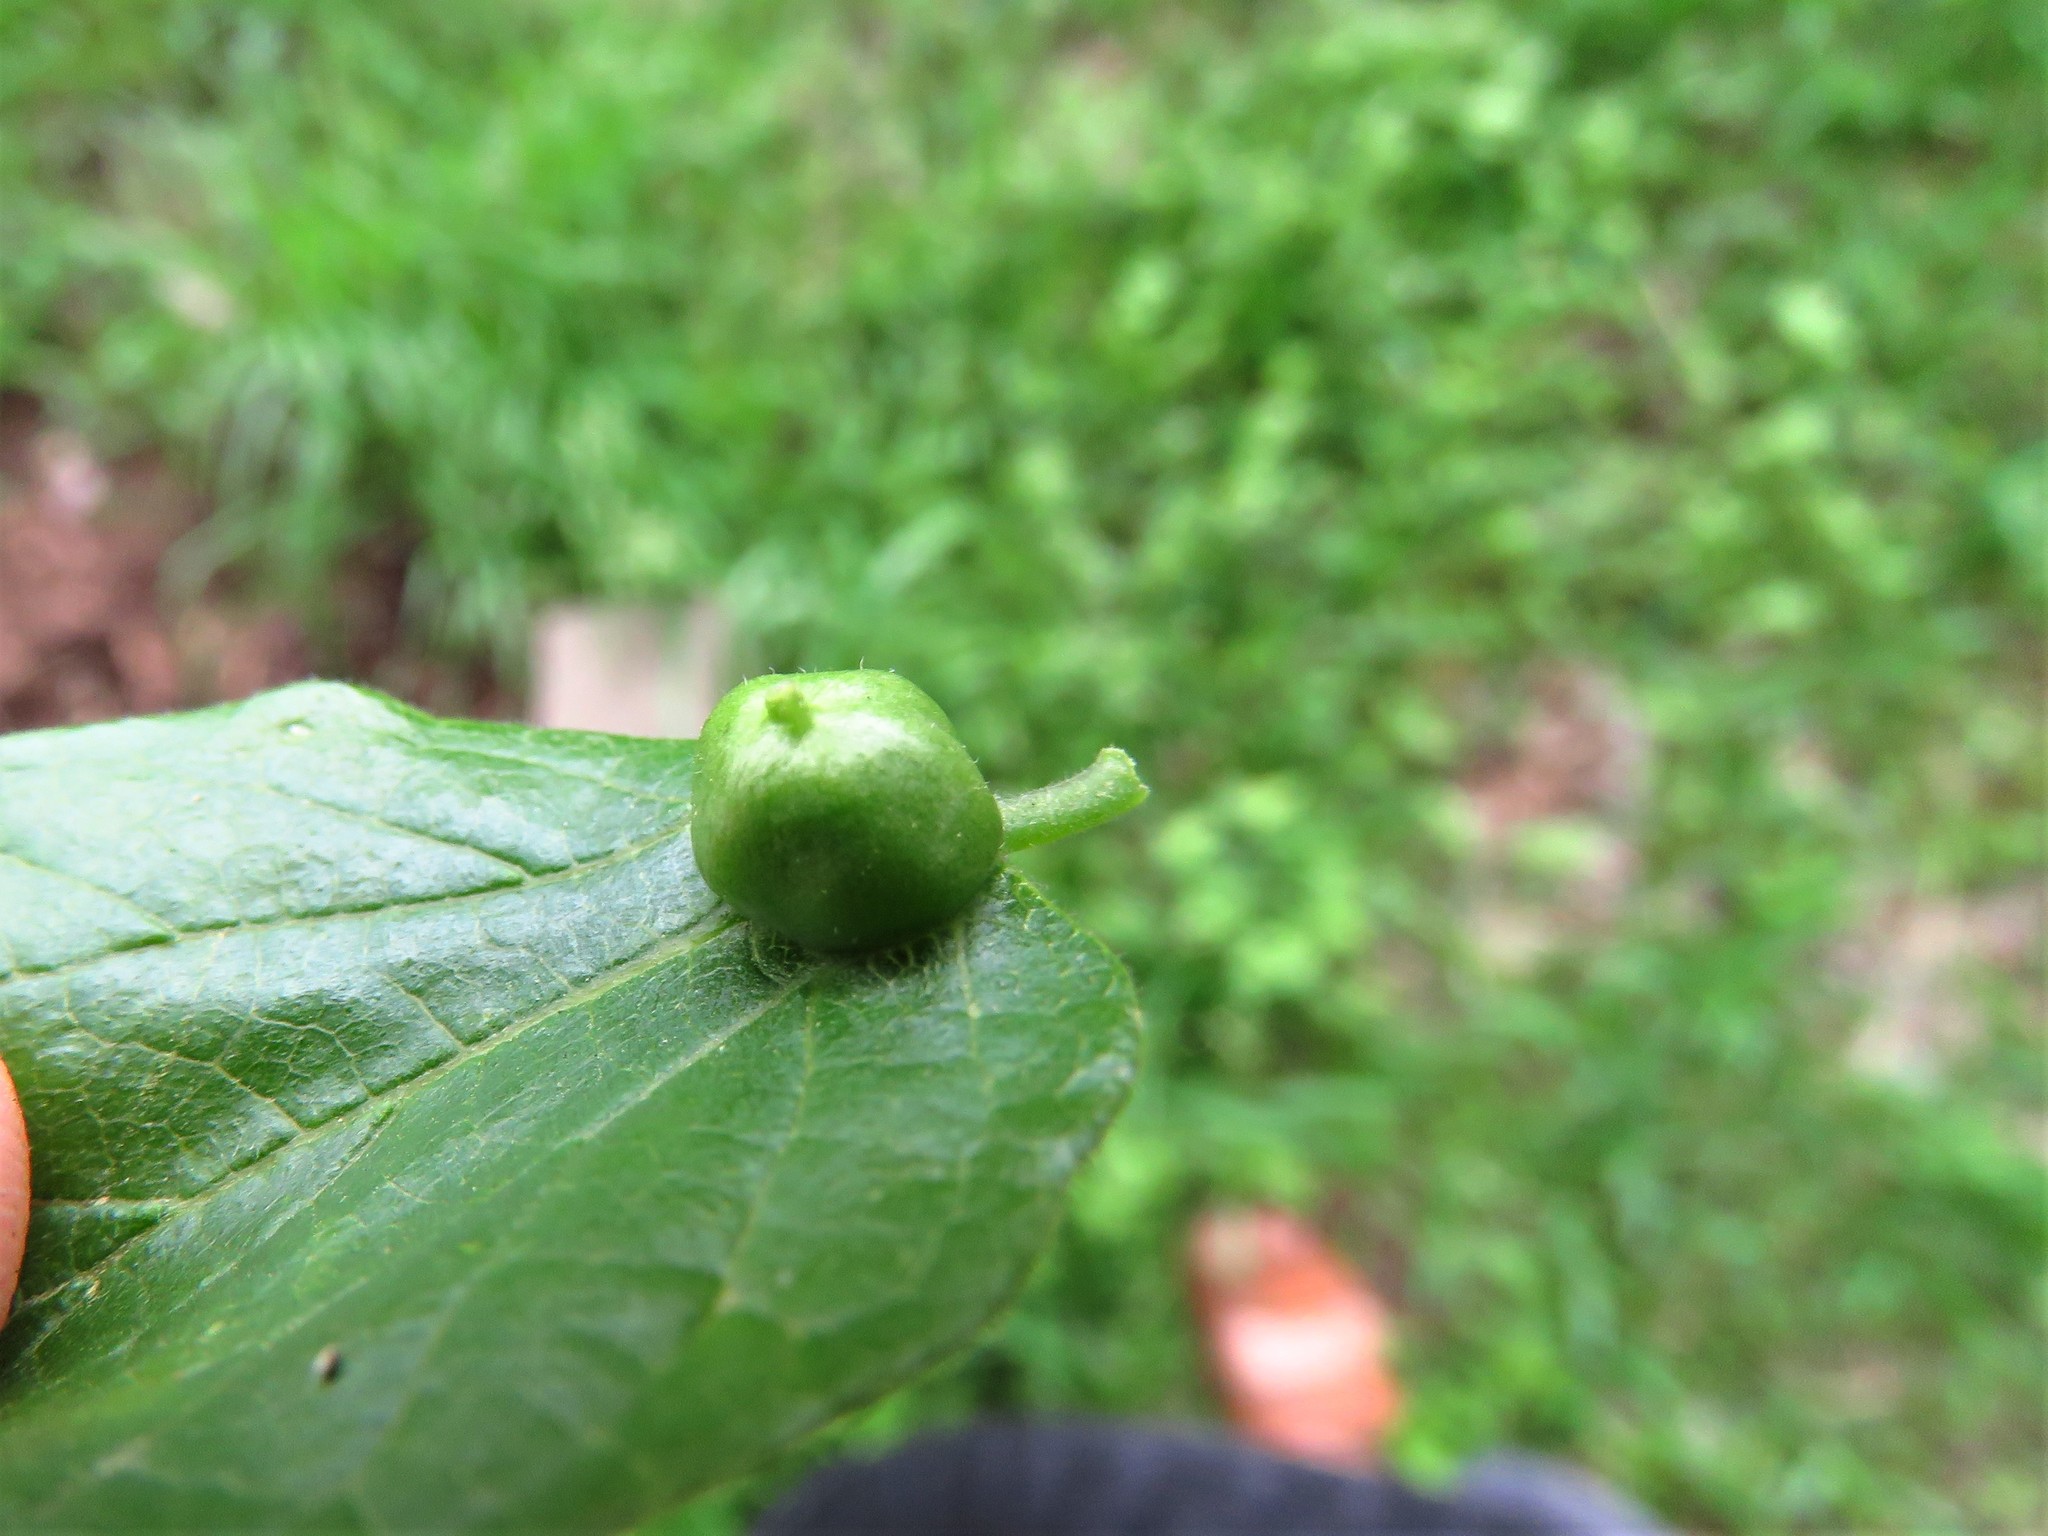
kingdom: Animalia
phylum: Arthropoda
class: Insecta
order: Diptera
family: Cecidomyiidae
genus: Celticecis
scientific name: Celticecis connata
